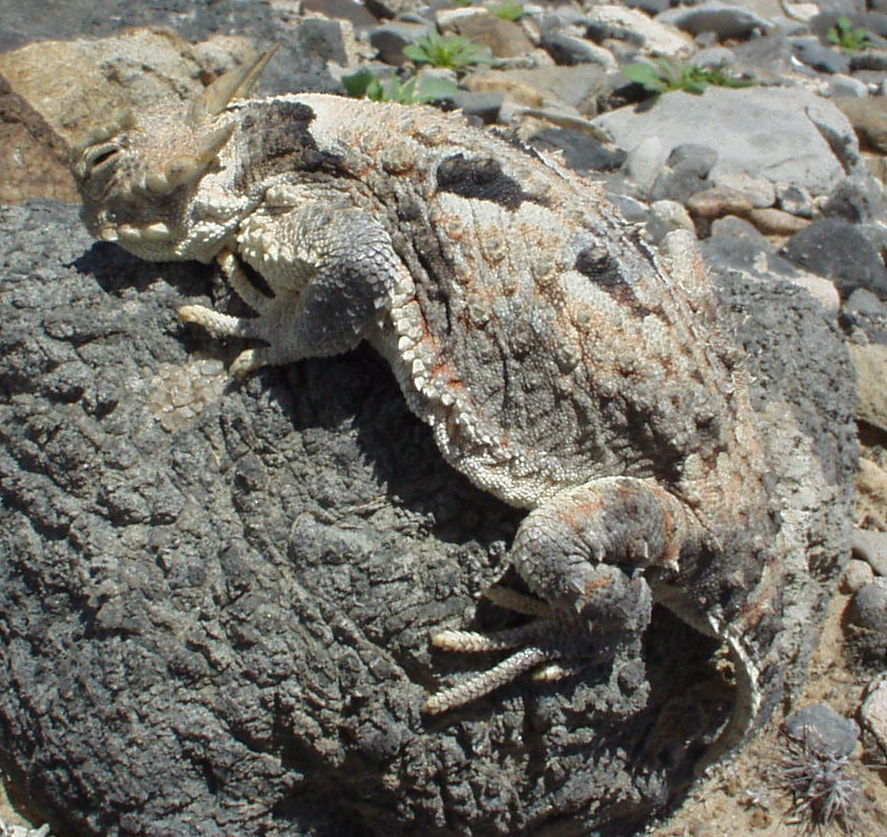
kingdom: Animalia
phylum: Chordata
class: Squamata
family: Phrynosomatidae
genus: Phrynosoma
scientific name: Phrynosoma platyrhinos
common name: Desert horned lizard
